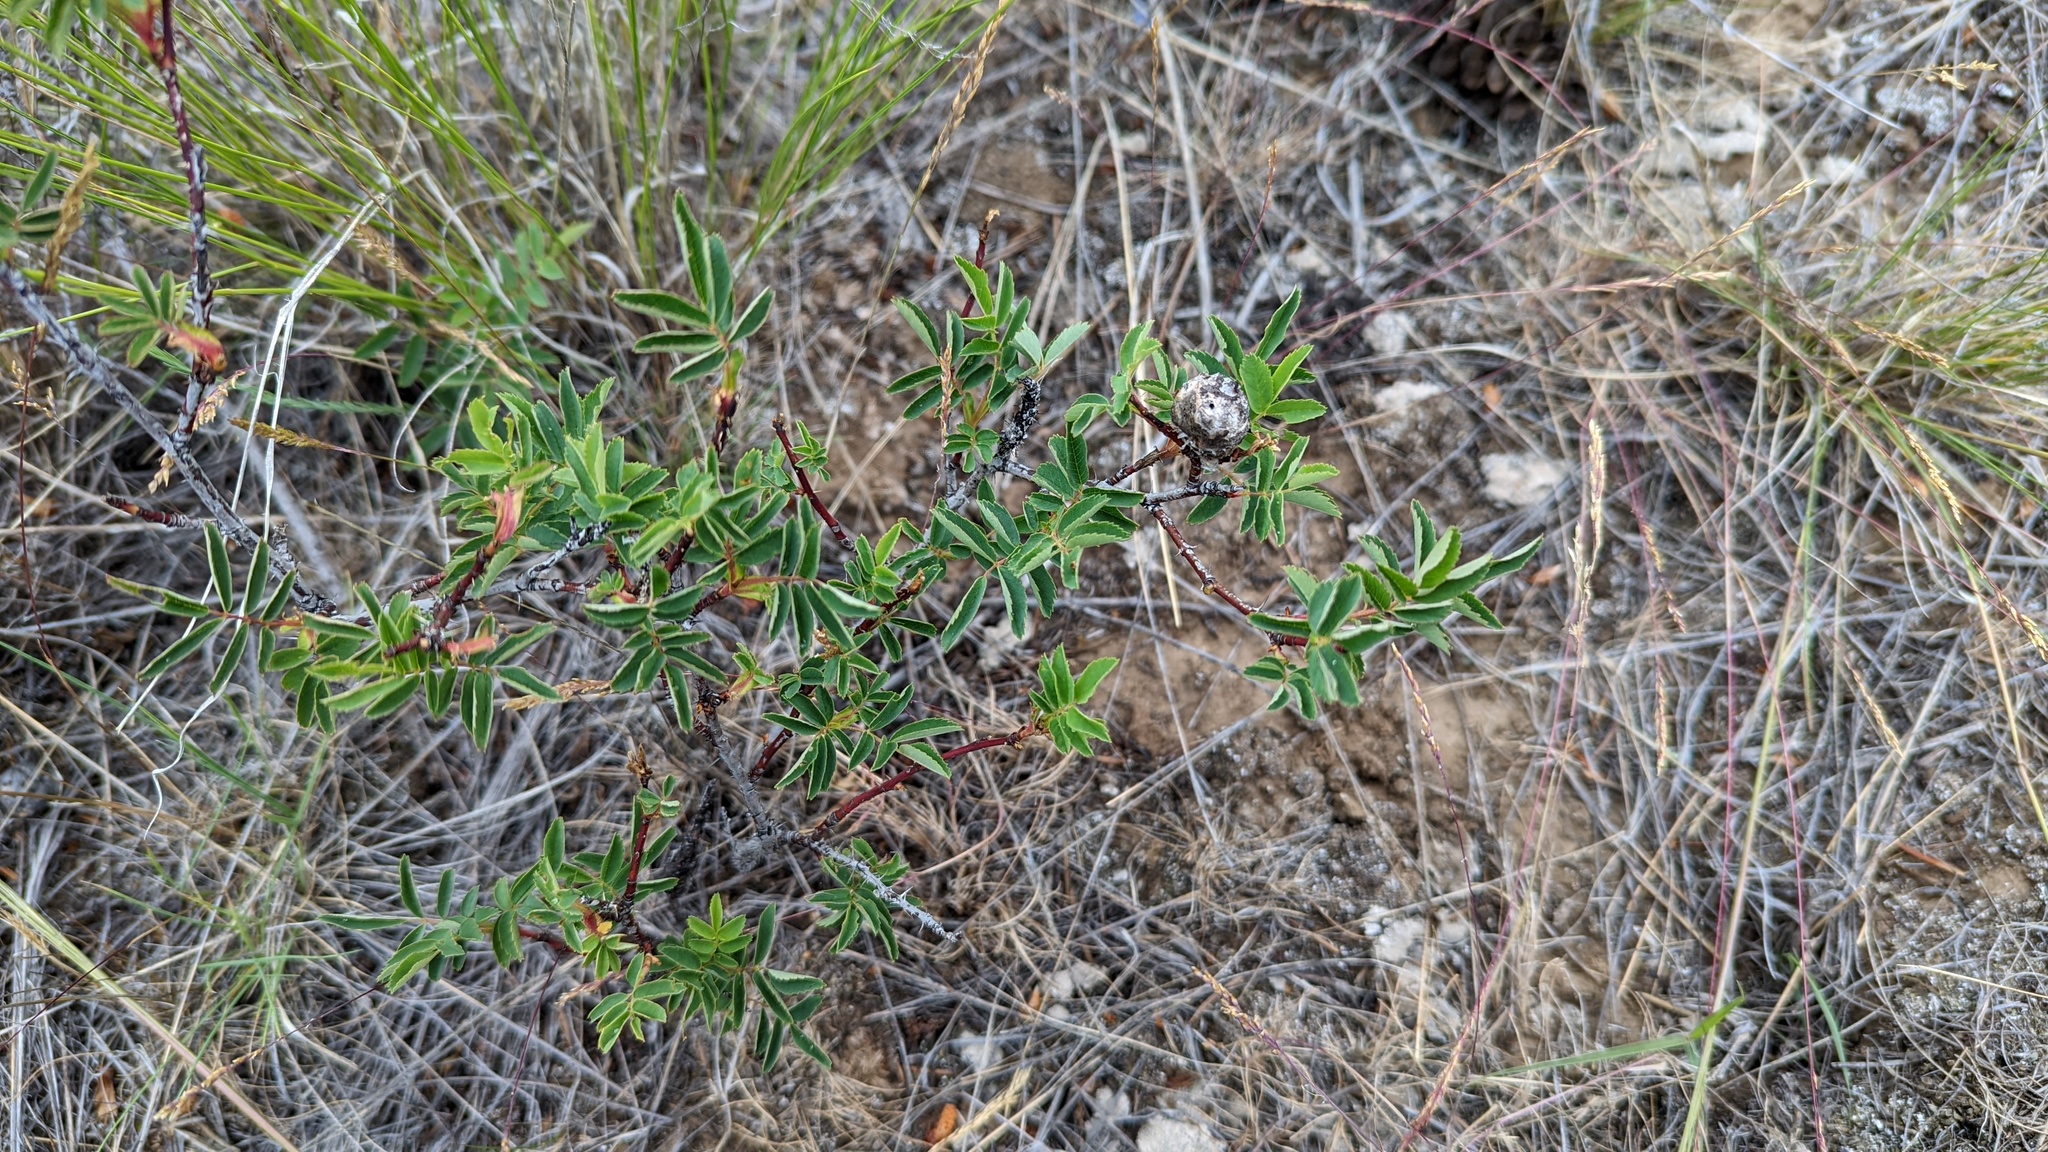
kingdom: Animalia
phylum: Arthropoda
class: Insecta
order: Hymenoptera
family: Cynipidae
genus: Diplolepis
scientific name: Diplolepis spinosa
